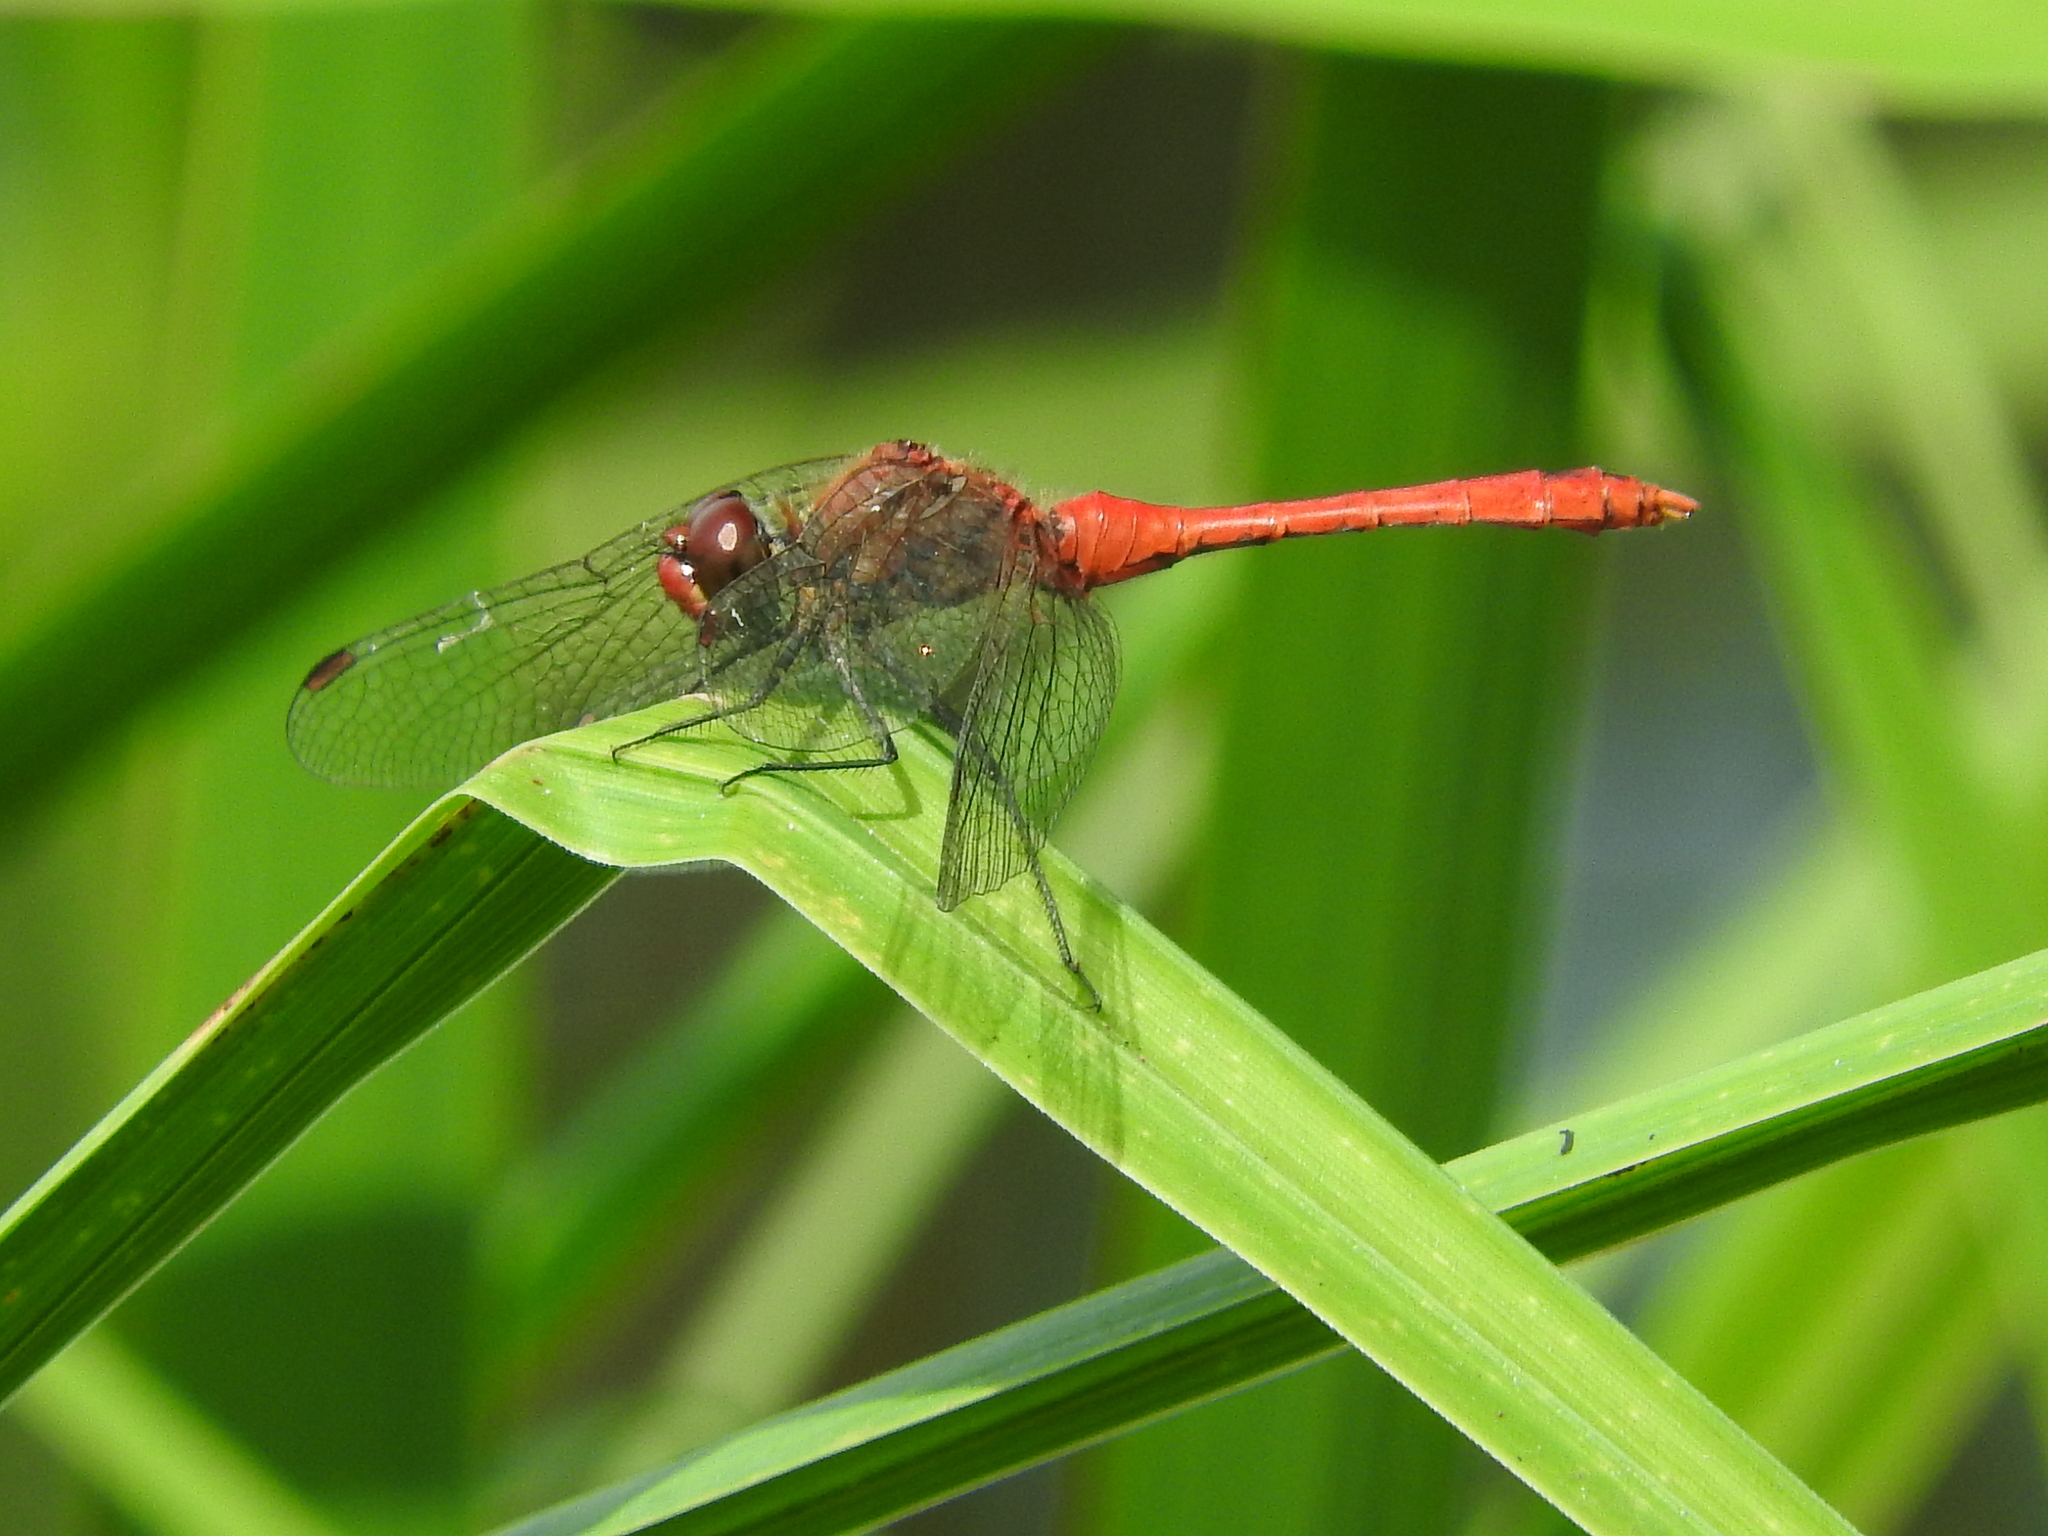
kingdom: Animalia
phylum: Arthropoda
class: Insecta
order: Odonata
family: Libellulidae
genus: Sympetrum
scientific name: Sympetrum sanguineum
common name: Ruddy darter
